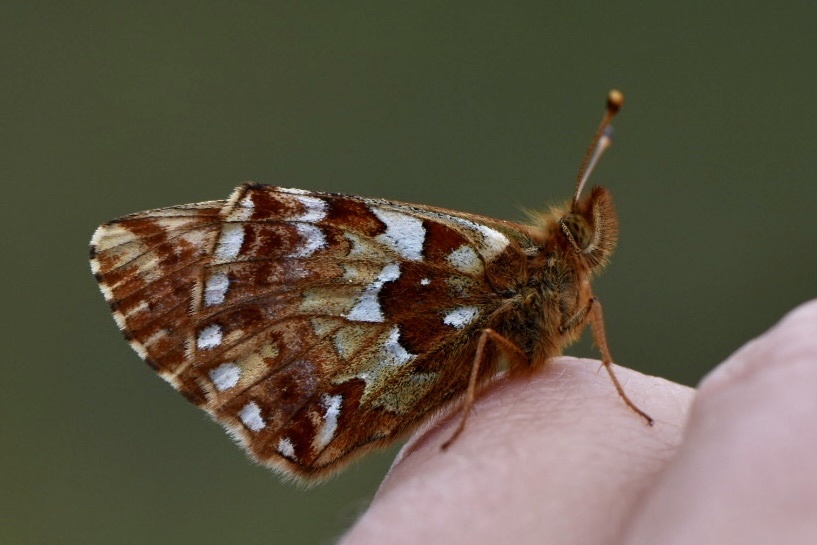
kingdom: Animalia
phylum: Arthropoda
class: Insecta
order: Lepidoptera
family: Nymphalidae
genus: Boloria
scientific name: Boloria aquilonaris
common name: Cranberry fritillary
